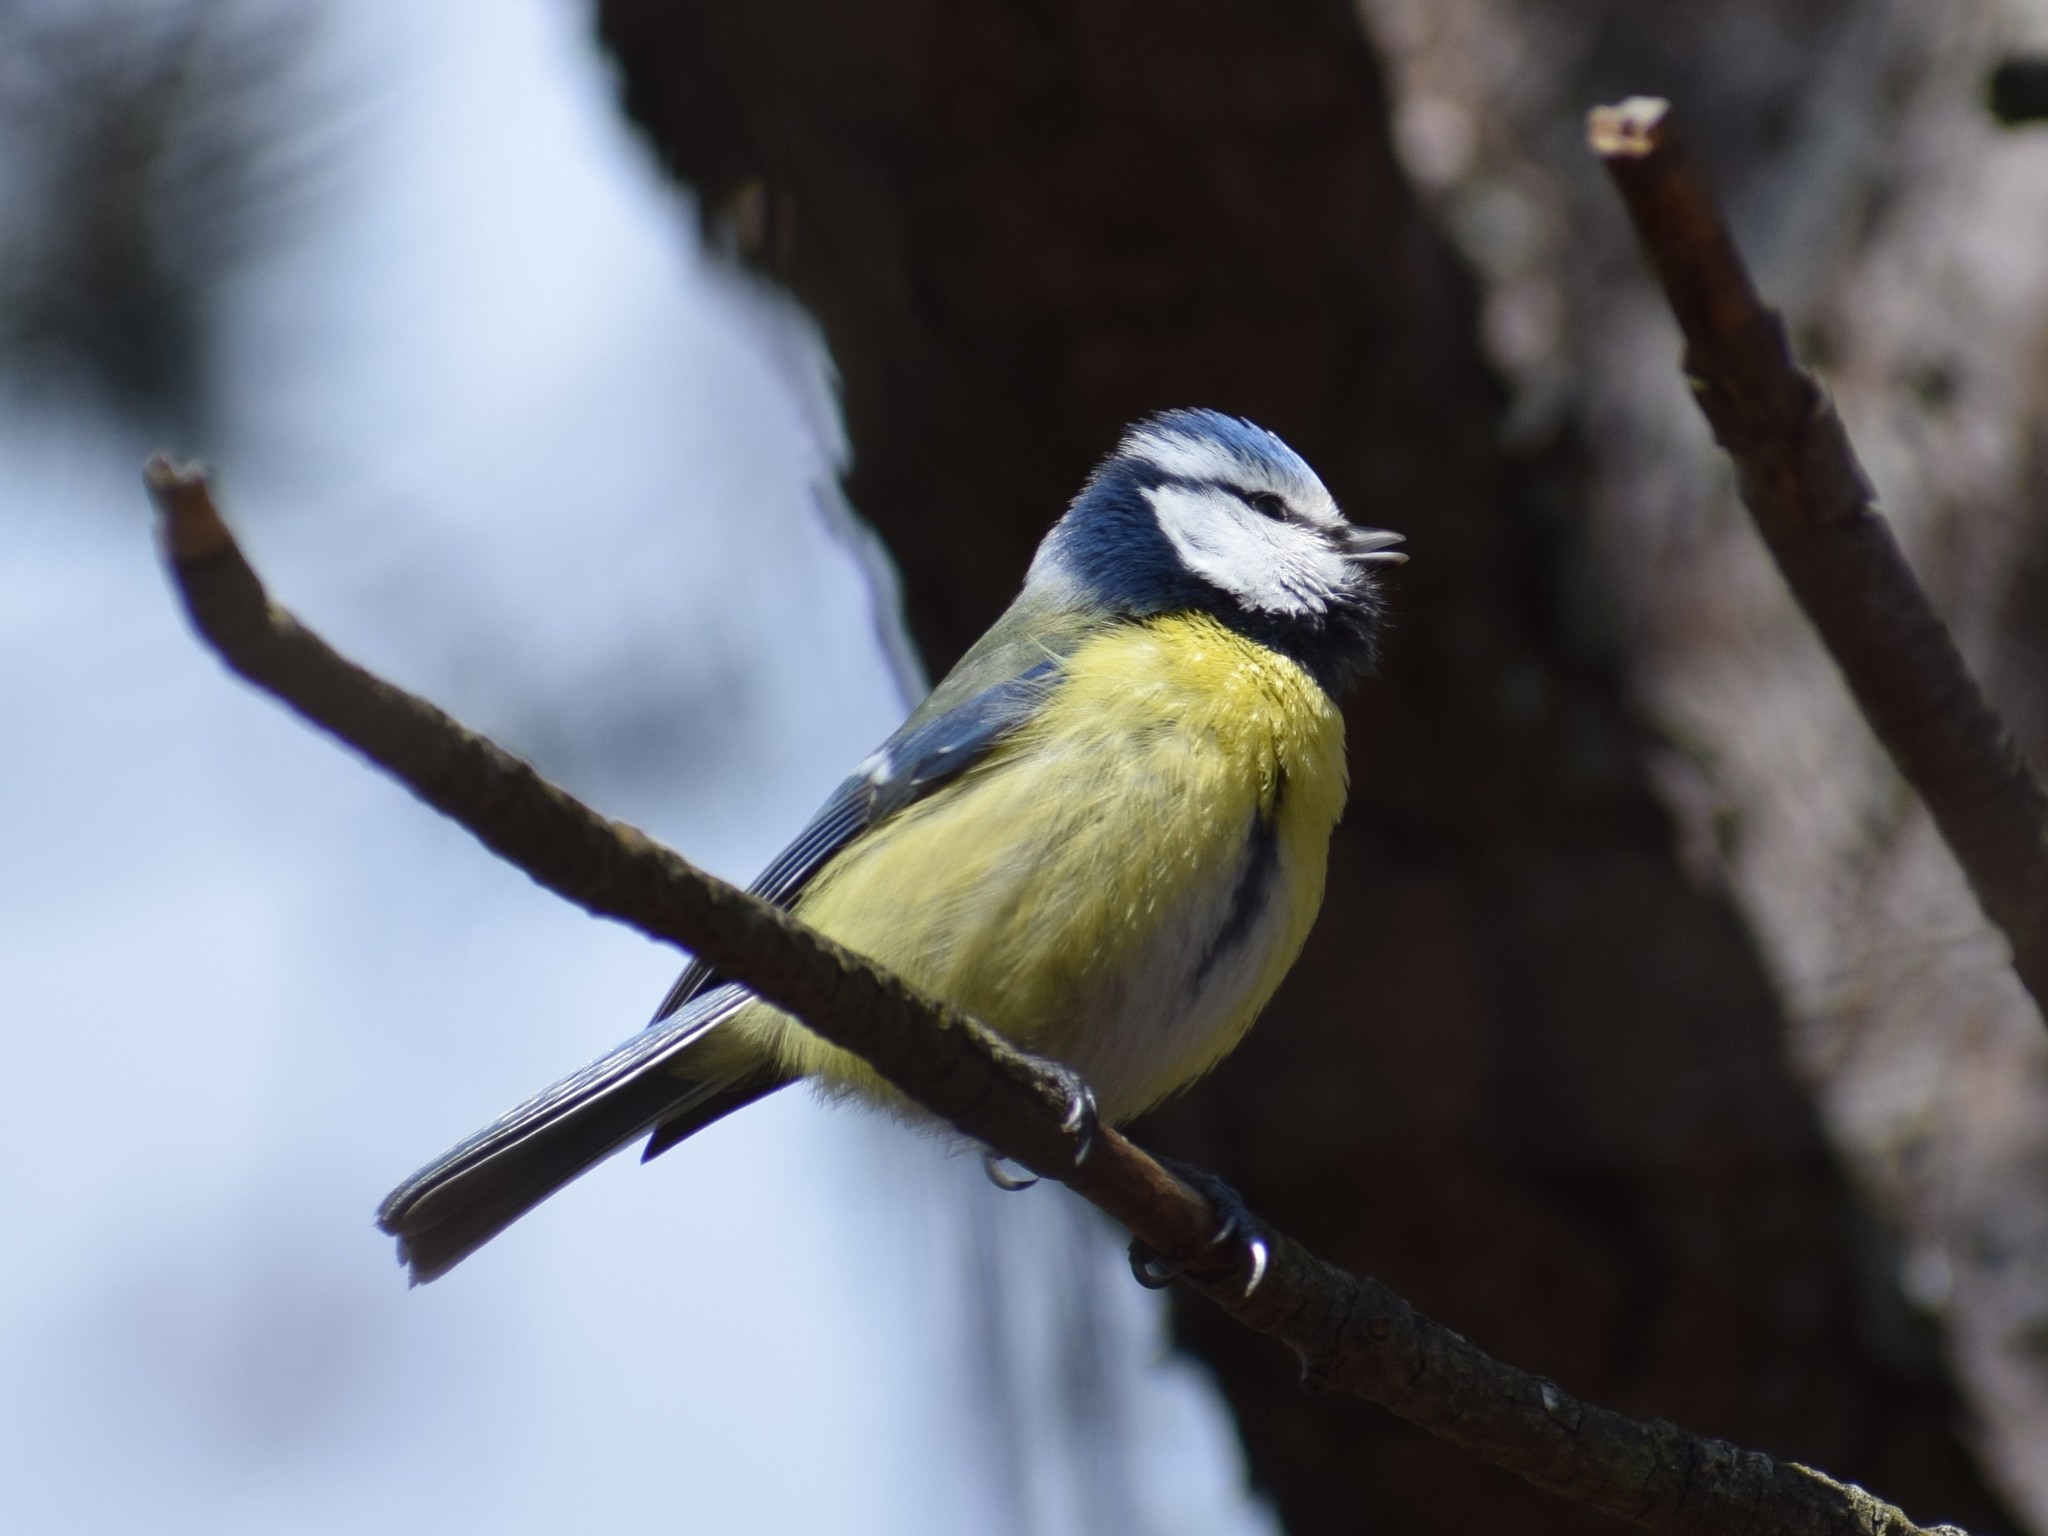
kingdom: Animalia
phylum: Chordata
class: Aves
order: Passeriformes
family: Paridae
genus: Cyanistes
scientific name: Cyanistes caeruleus
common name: Eurasian blue tit
